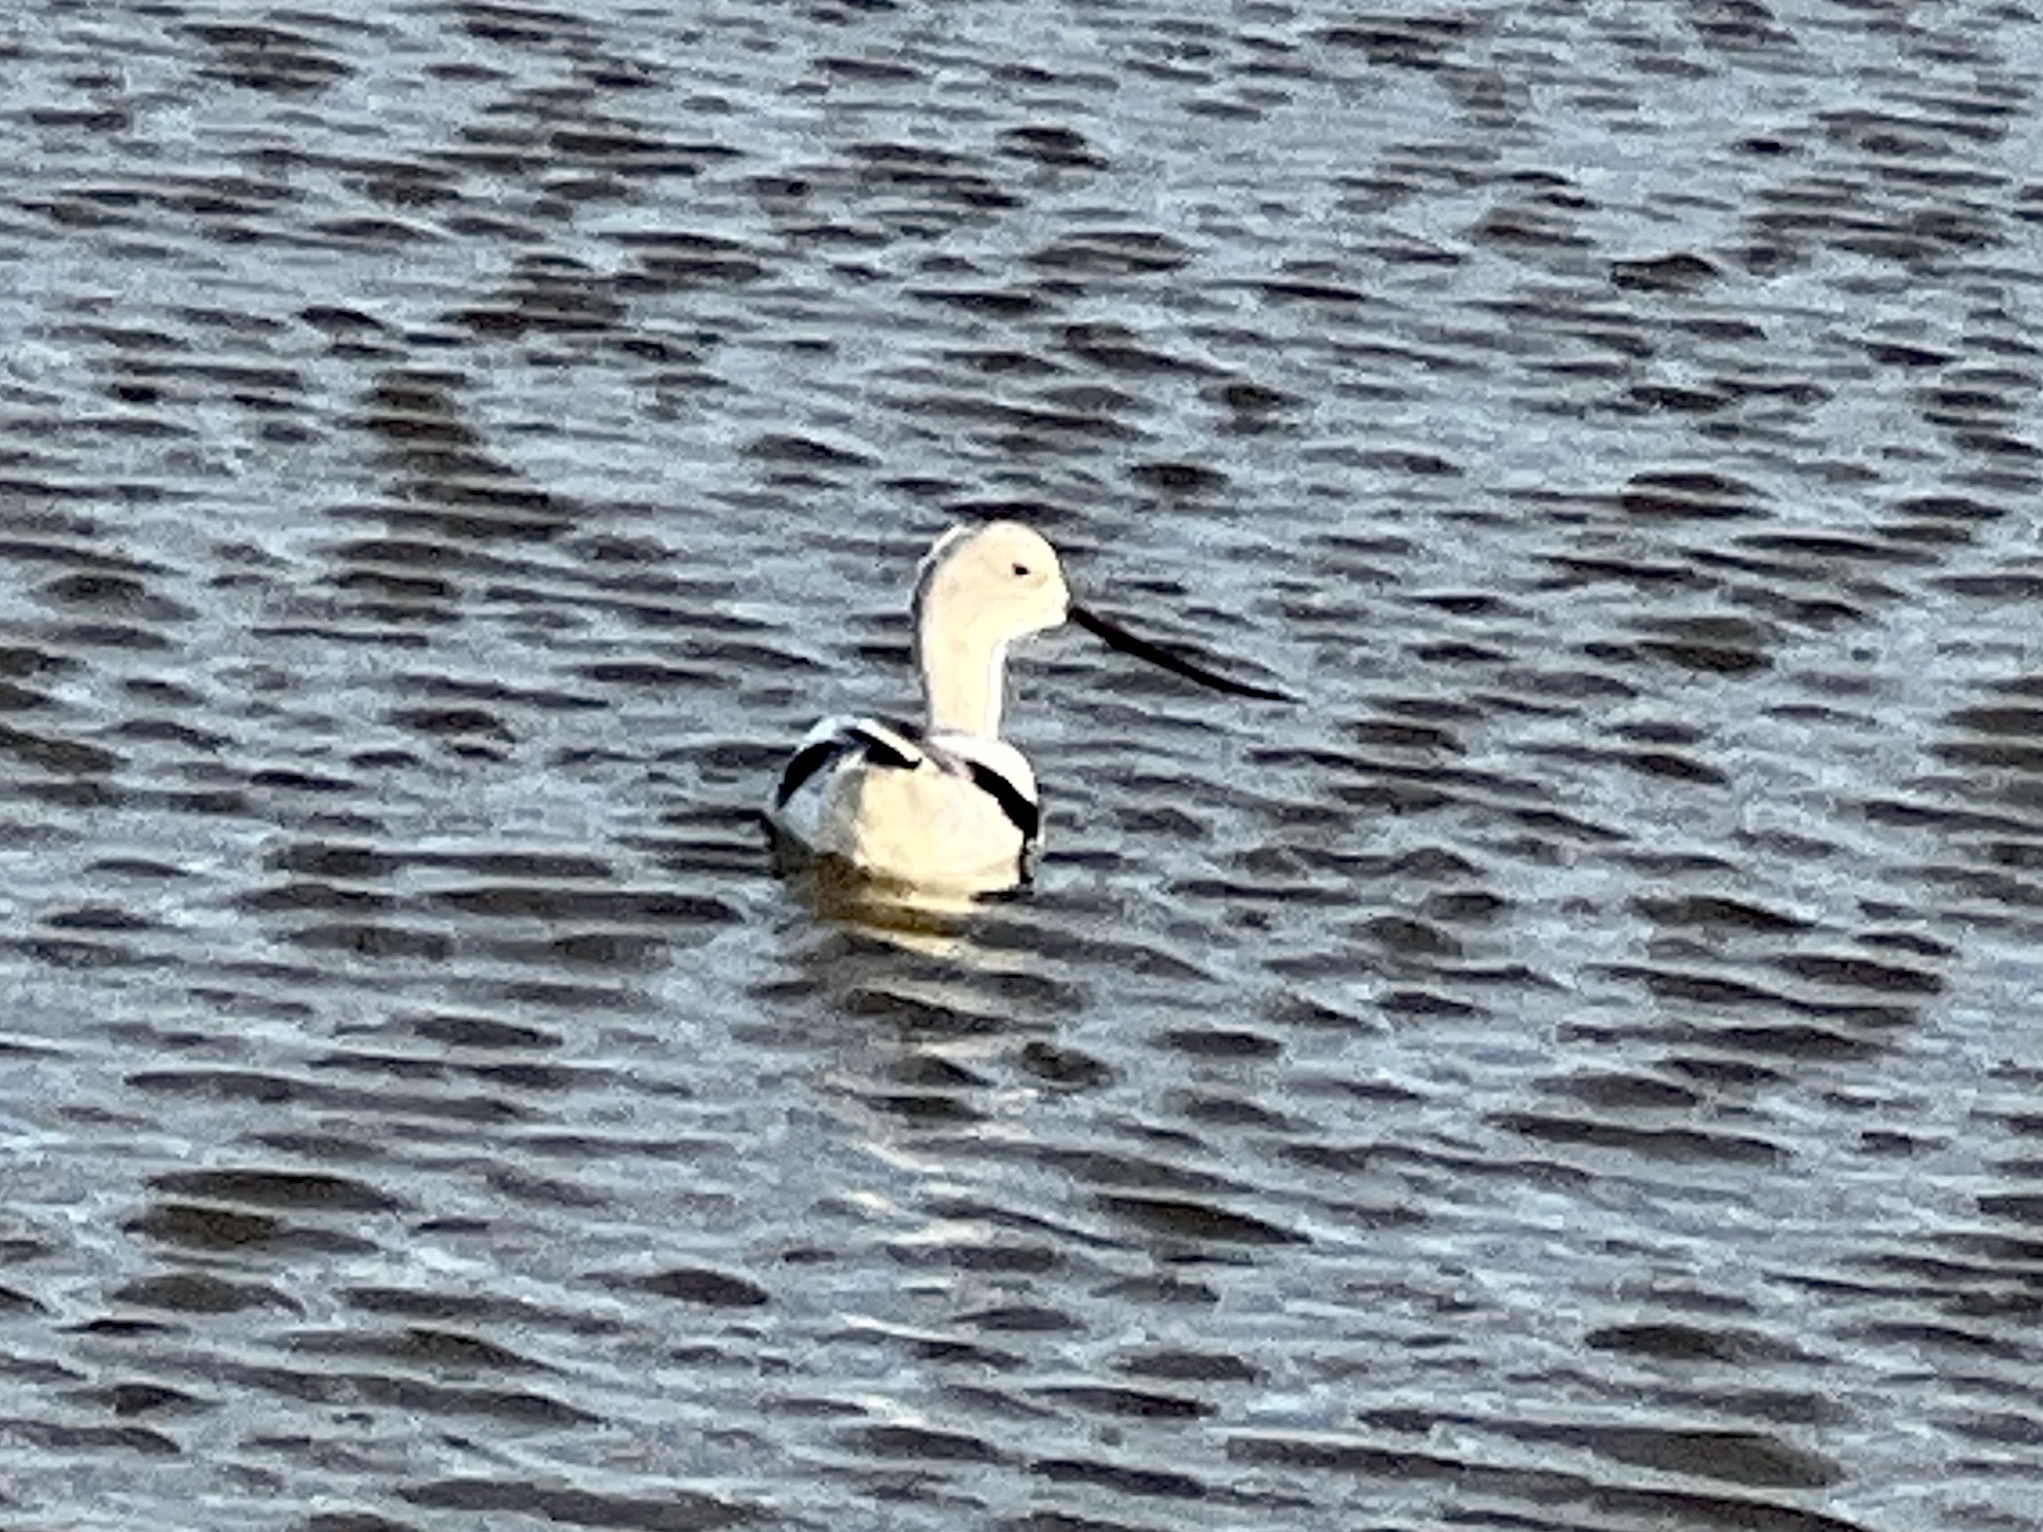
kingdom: Animalia
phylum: Chordata
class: Aves
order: Charadriiformes
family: Recurvirostridae
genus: Recurvirostra
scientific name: Recurvirostra americana
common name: American avocet
